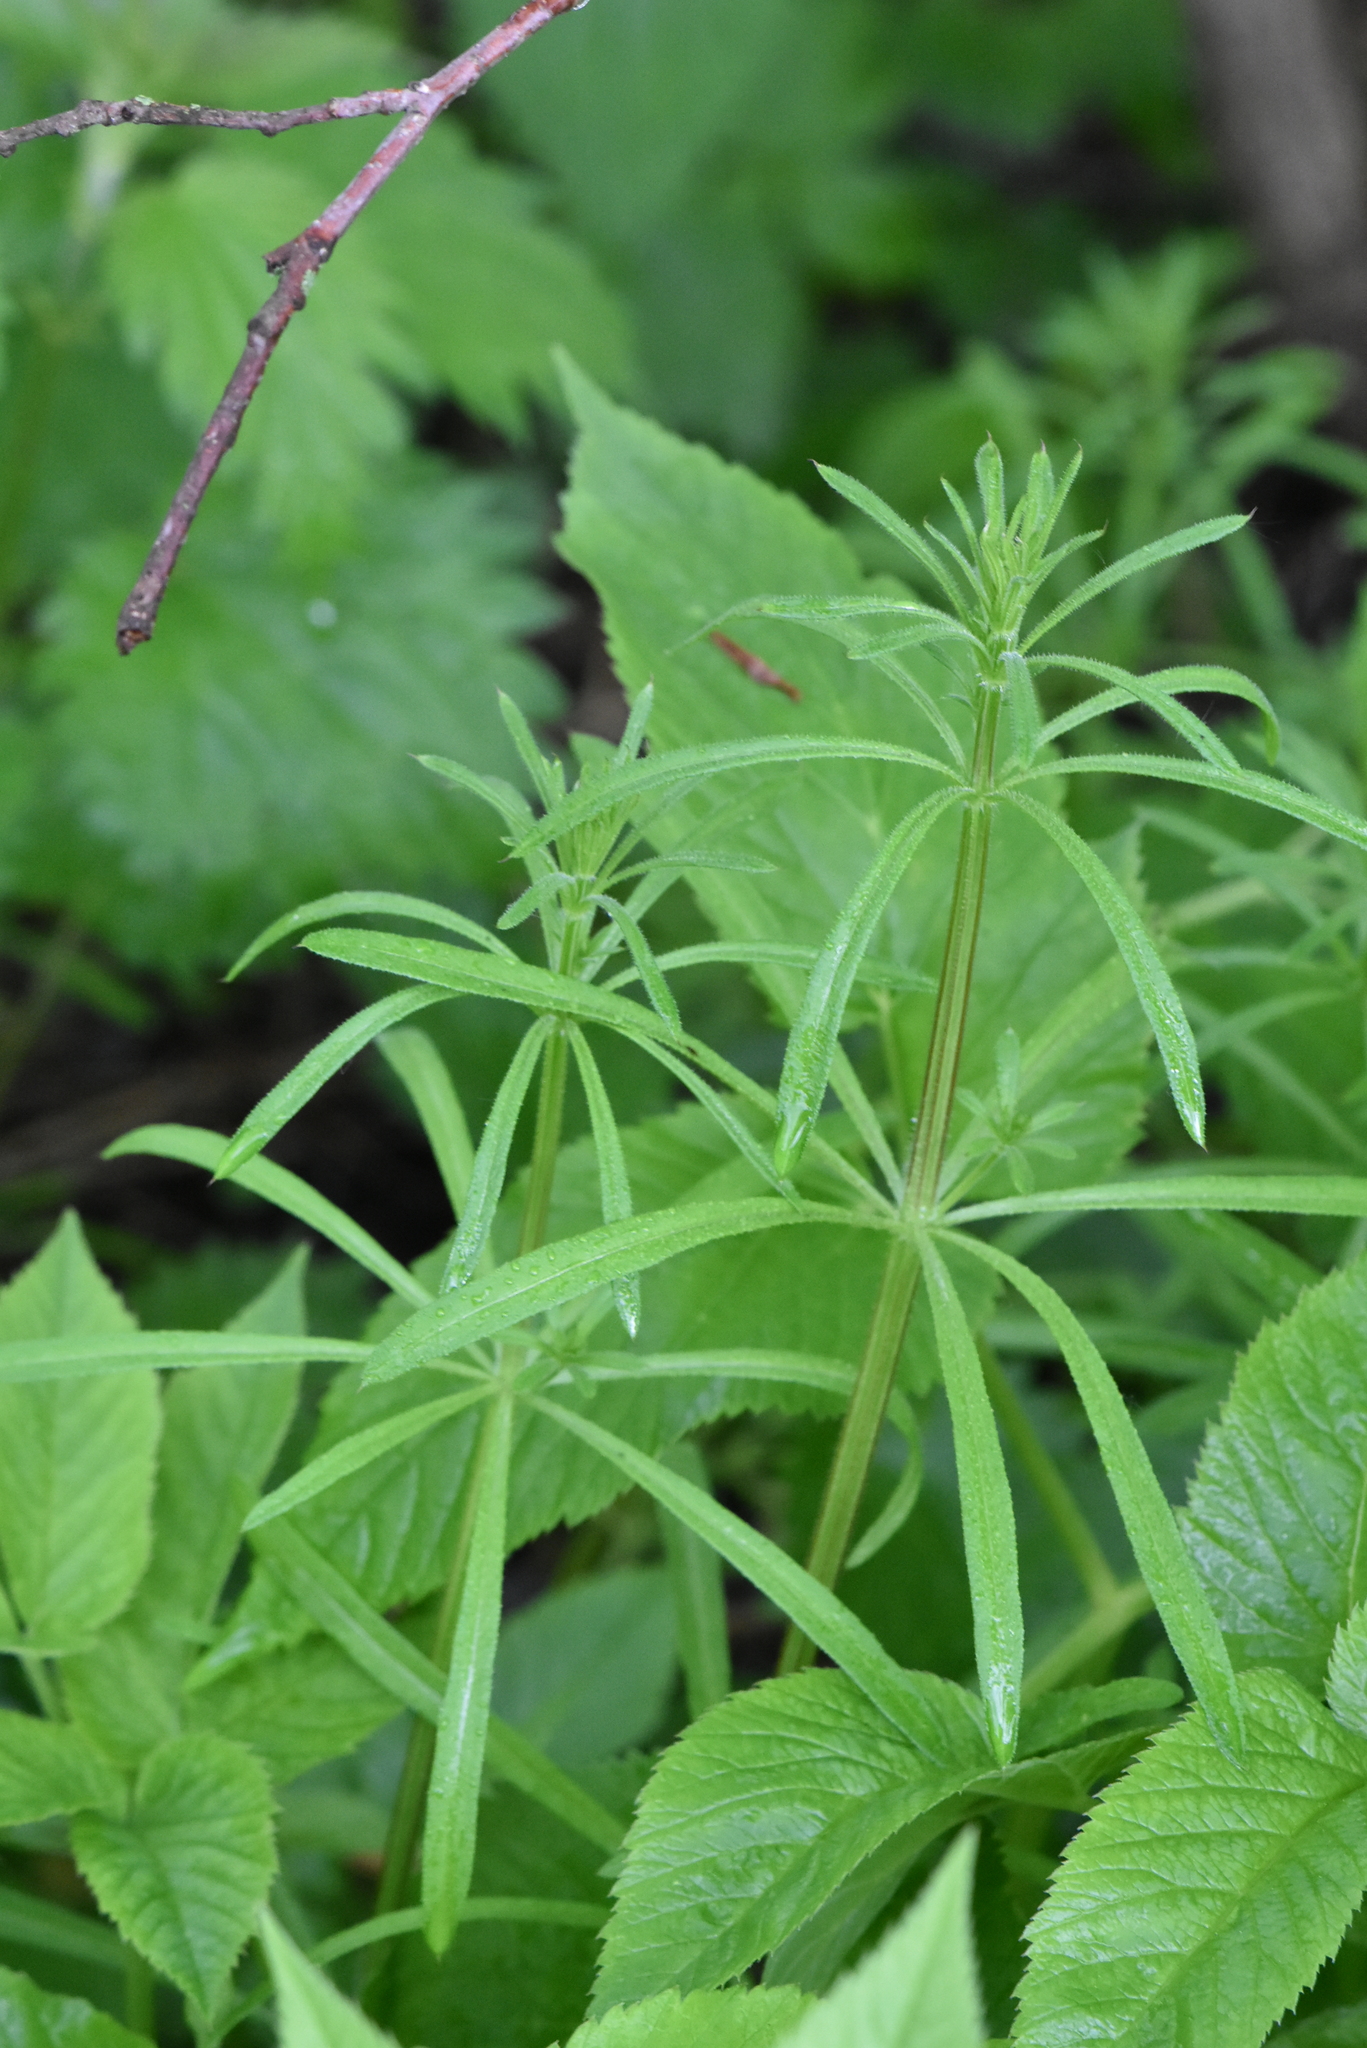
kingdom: Plantae
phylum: Tracheophyta
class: Magnoliopsida
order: Gentianales
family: Rubiaceae
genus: Galium
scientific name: Galium aparine
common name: Cleavers
